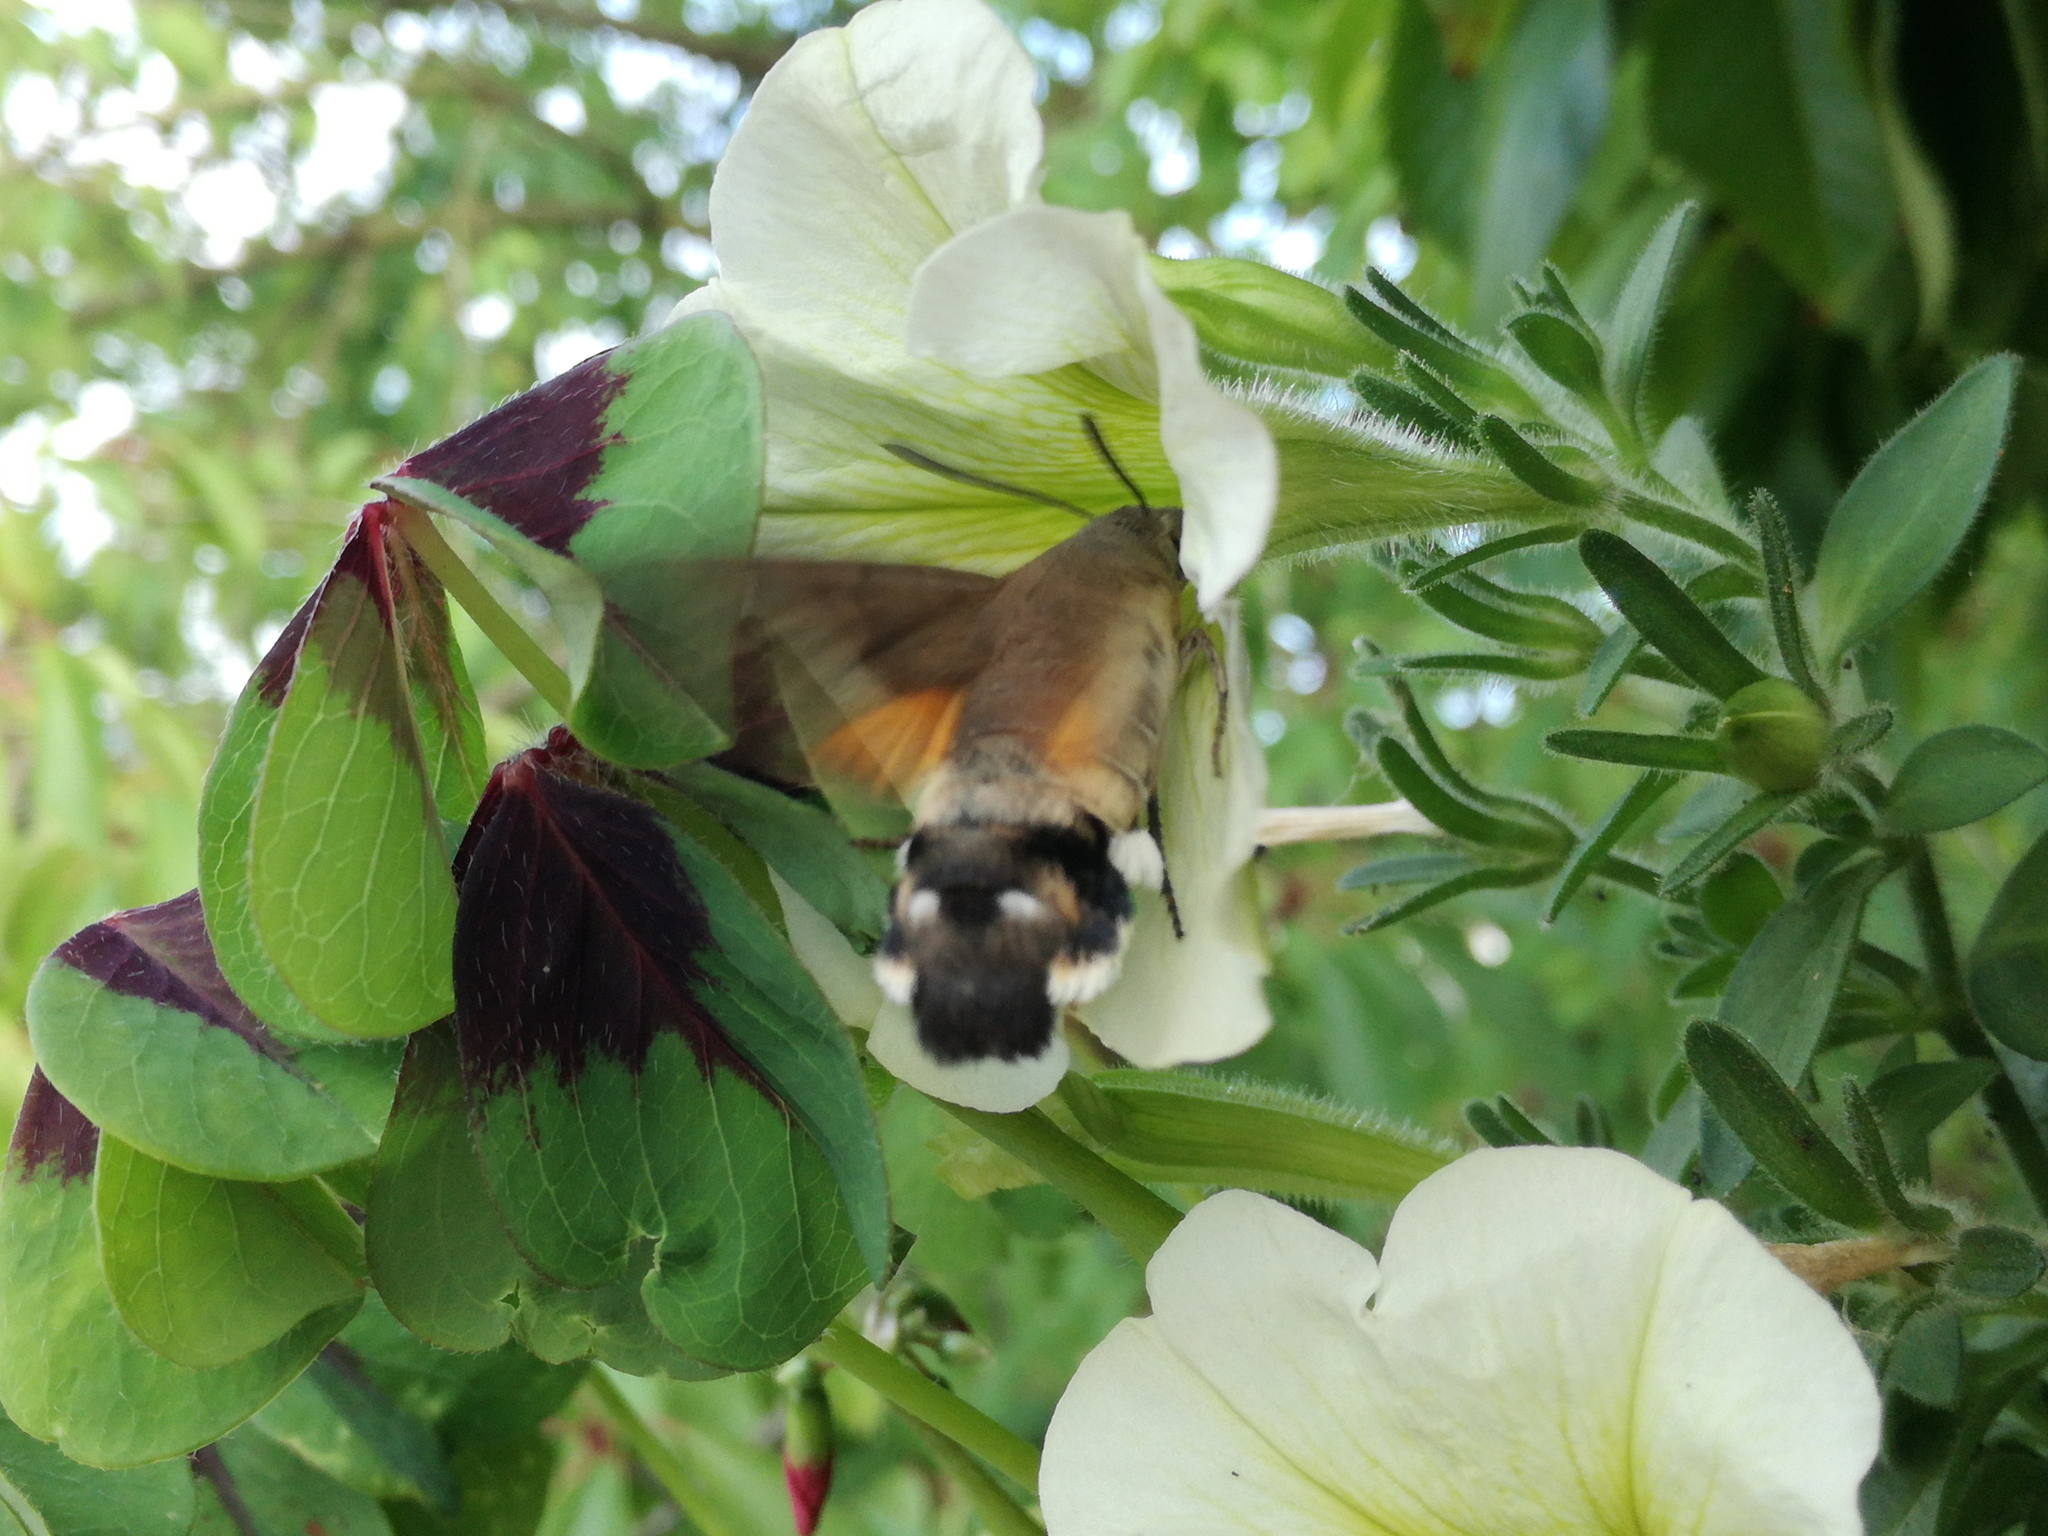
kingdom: Animalia
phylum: Arthropoda
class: Insecta
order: Lepidoptera
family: Sphingidae
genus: Macroglossum
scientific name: Macroglossum stellatarum
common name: Humming-bird hawk-moth
